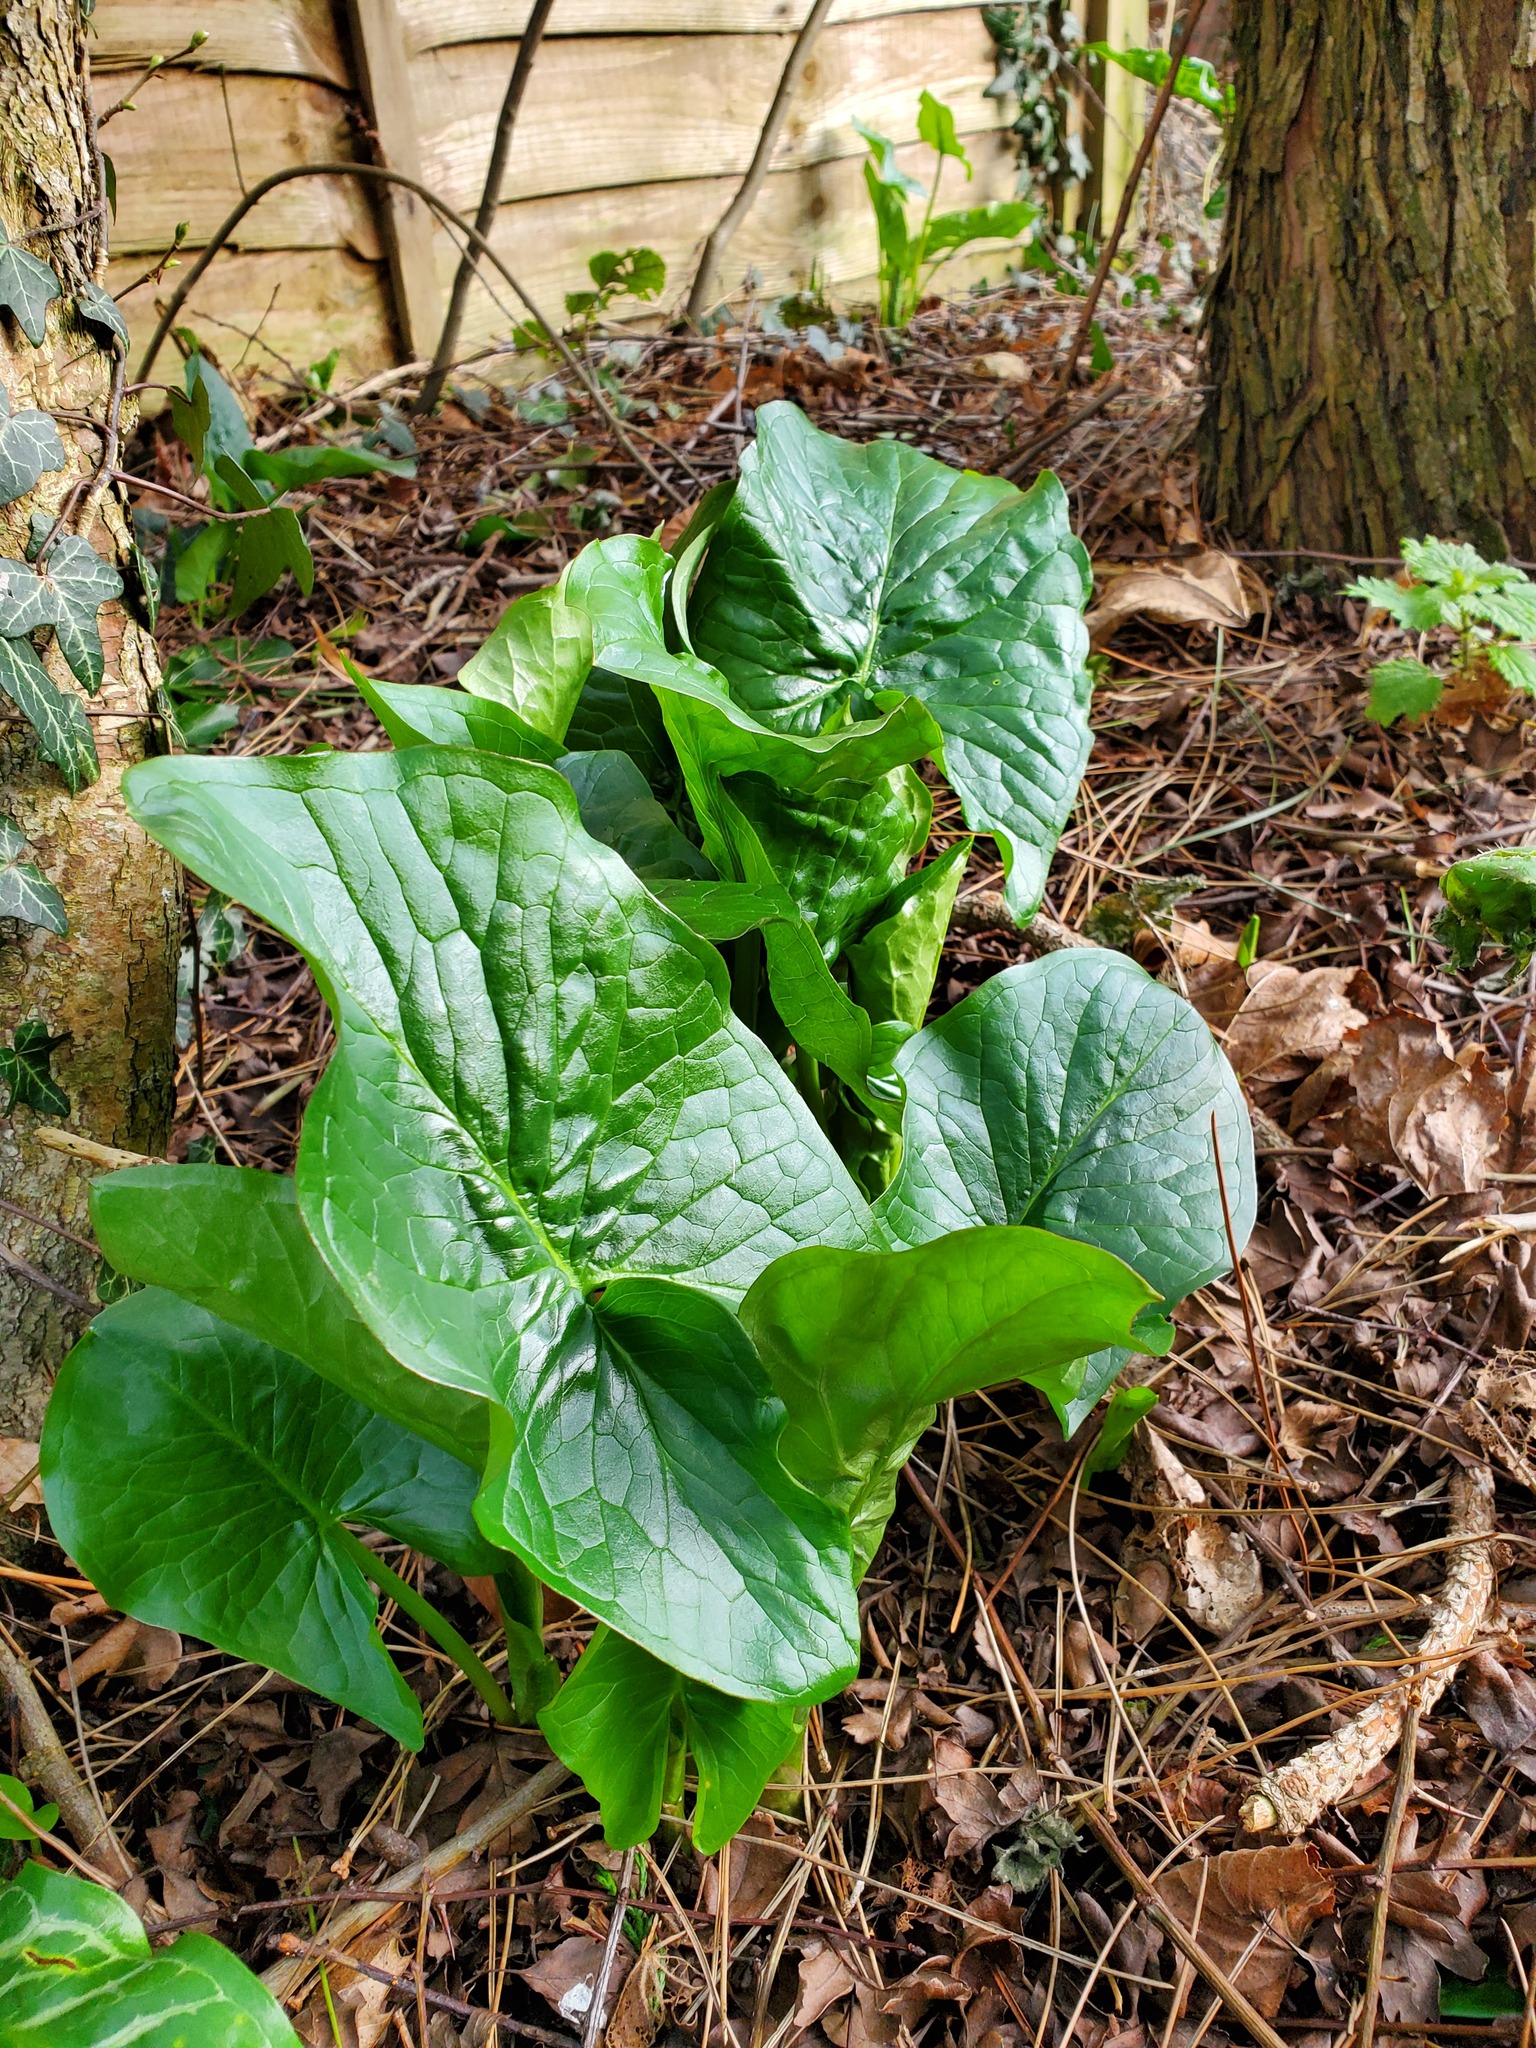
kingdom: Plantae
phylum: Tracheophyta
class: Liliopsida
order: Alismatales
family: Araceae
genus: Arum
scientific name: Arum maculatum
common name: Lords-and-ladies
